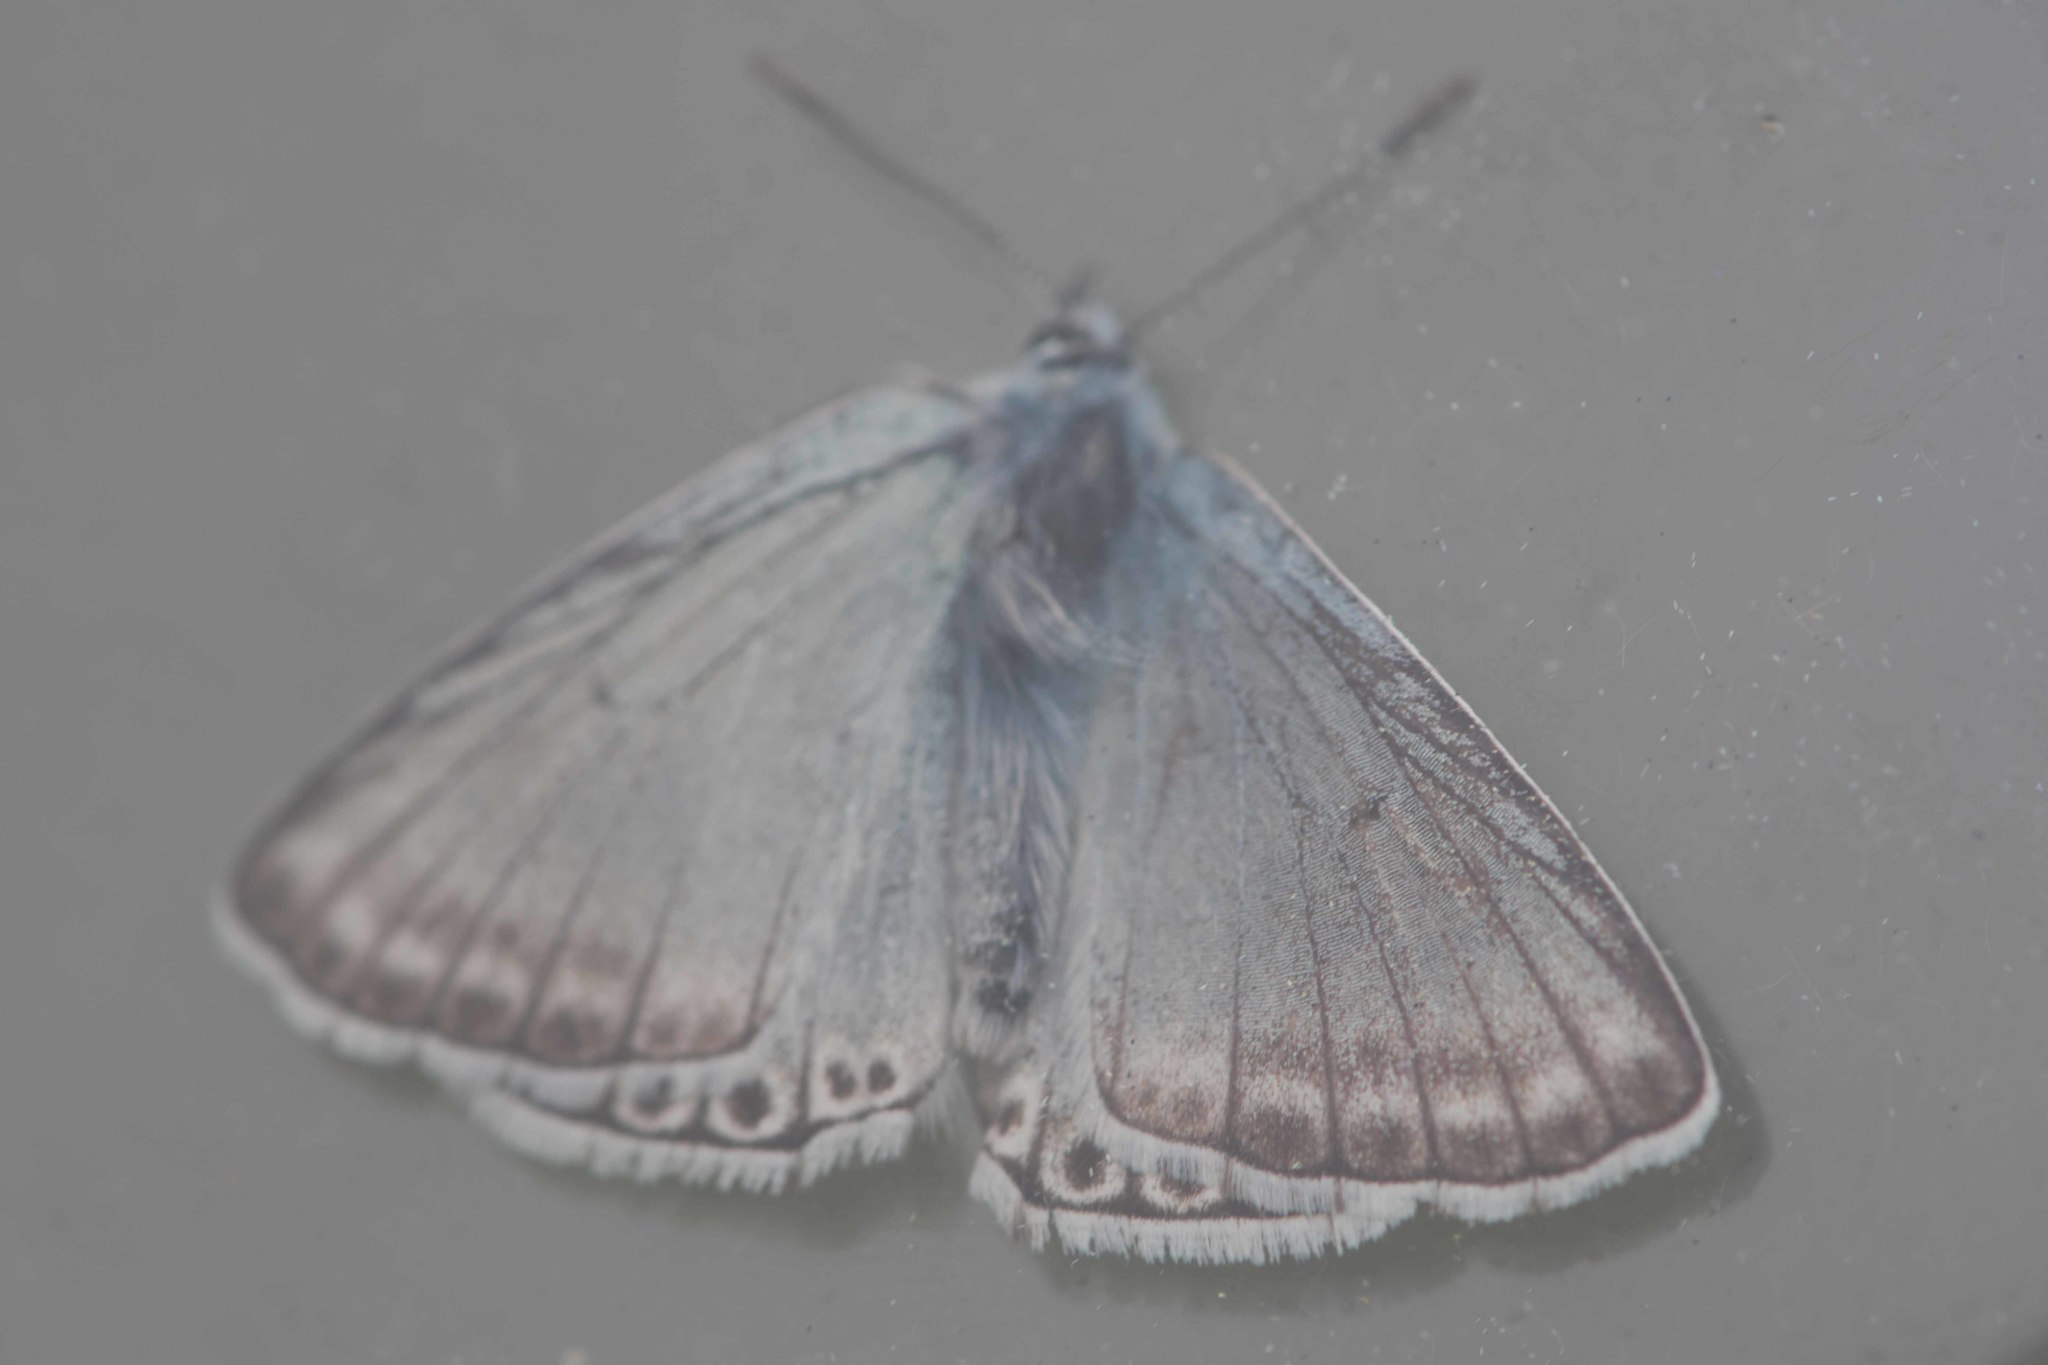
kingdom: Animalia
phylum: Arthropoda
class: Insecta
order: Lepidoptera
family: Lycaenidae
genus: Lysandra
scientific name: Lysandra hispana
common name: Provence chalkhill blue
